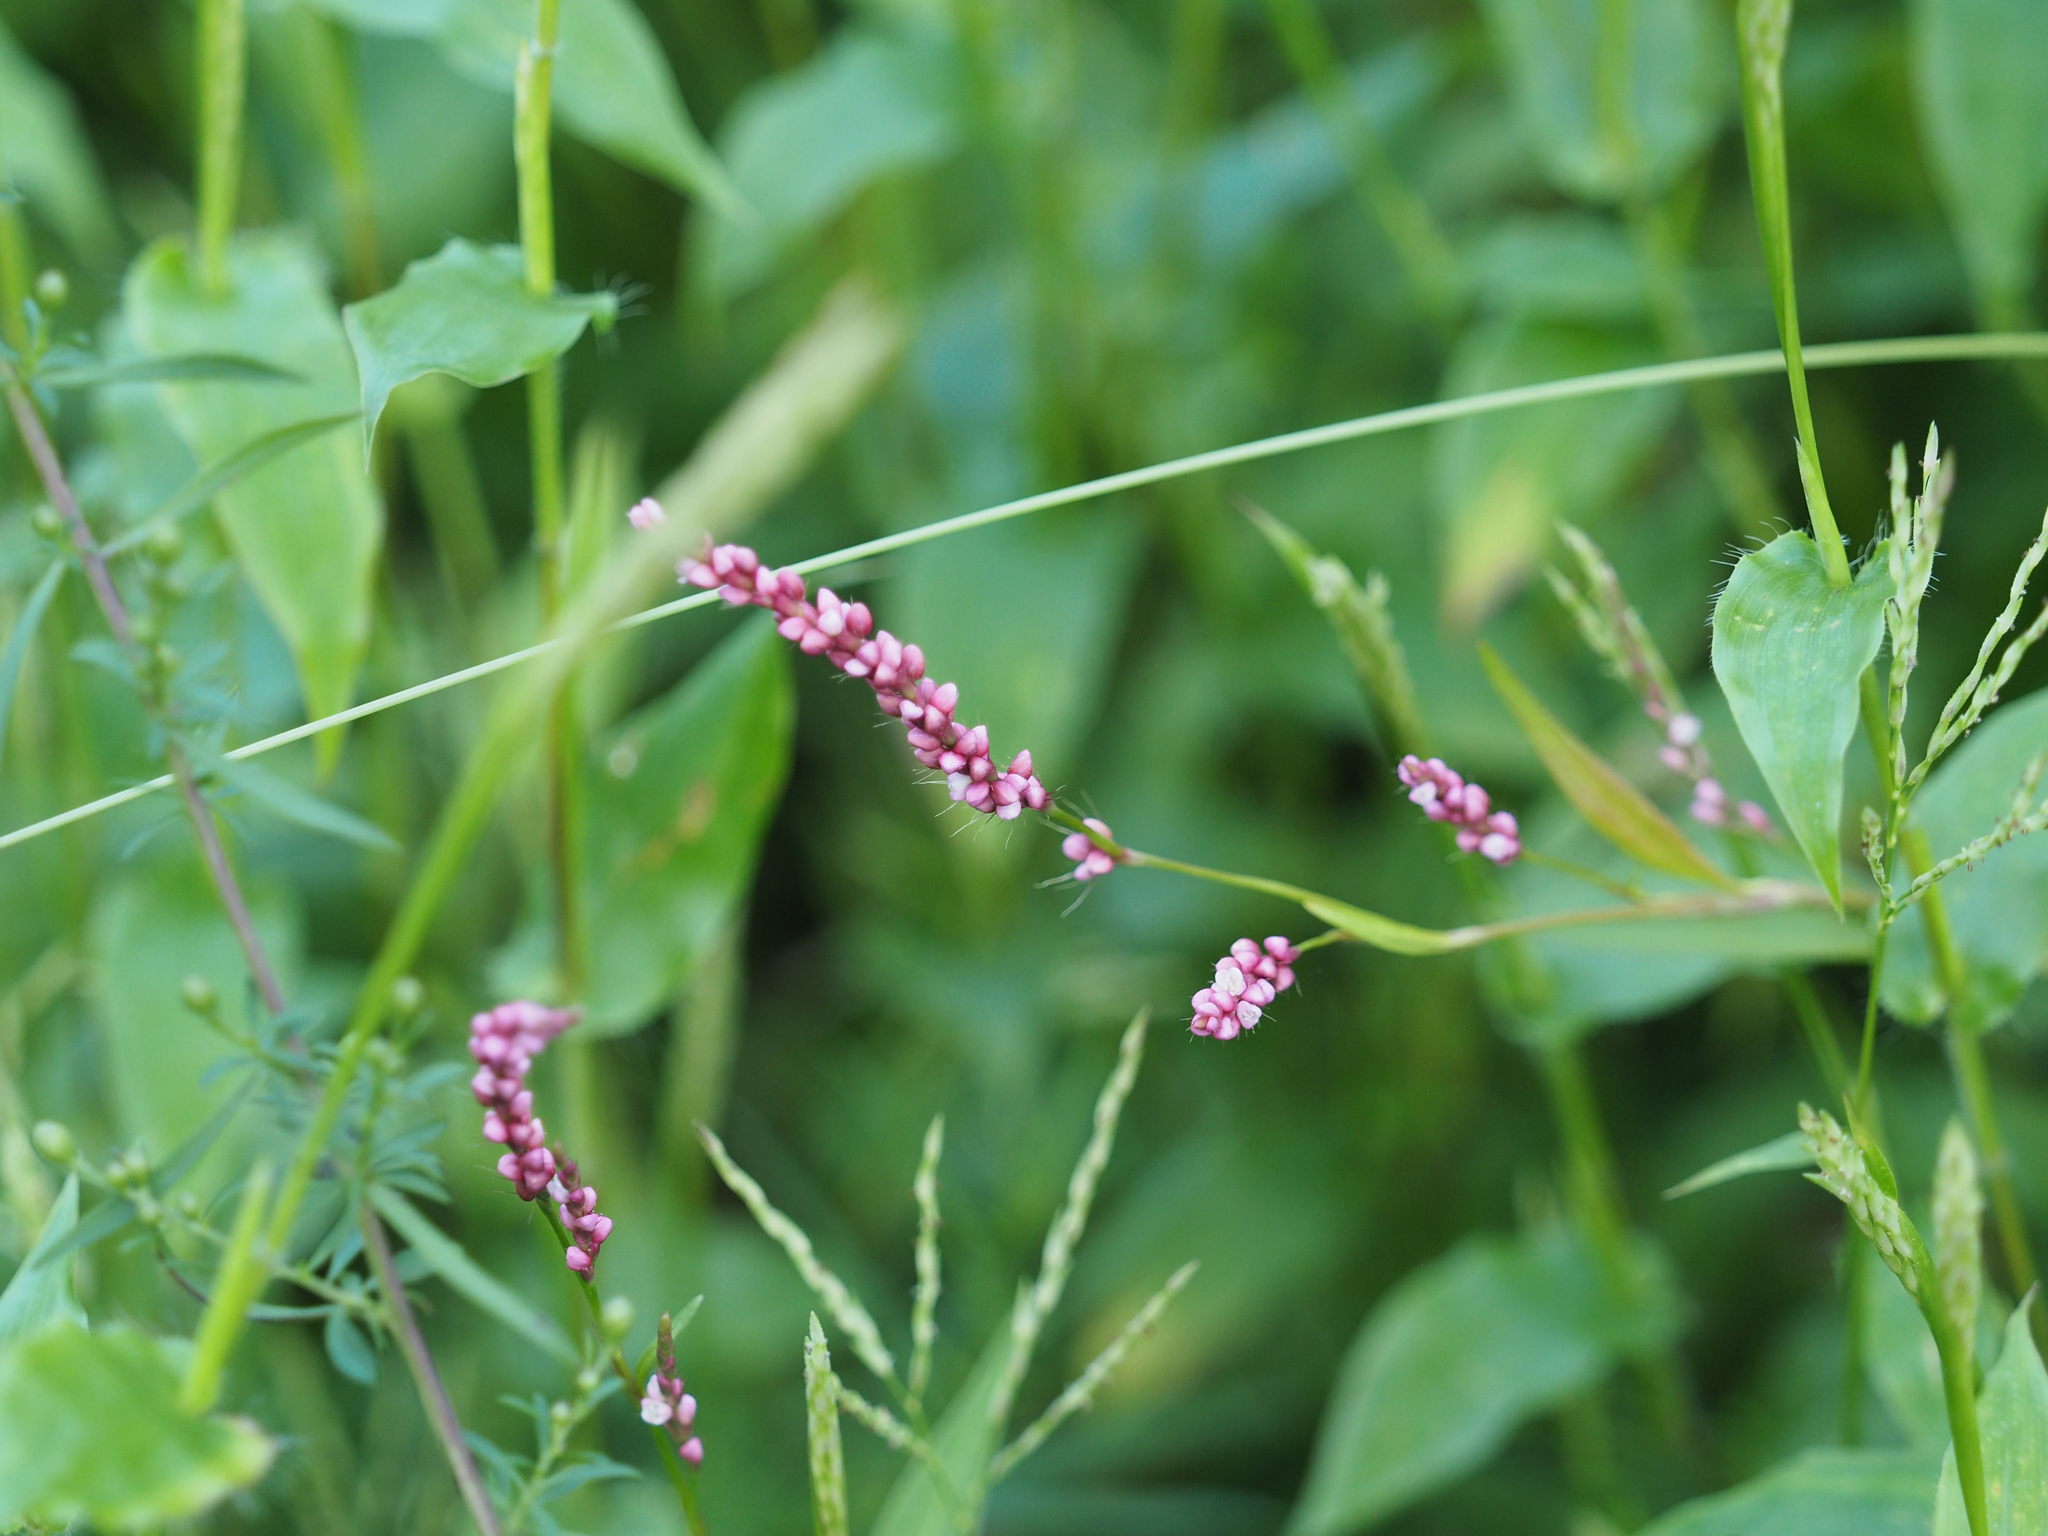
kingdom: Plantae
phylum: Tracheophyta
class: Magnoliopsida
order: Caryophyllales
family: Polygonaceae
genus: Persicaria
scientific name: Persicaria longiseta
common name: Bristly lady's-thumb
